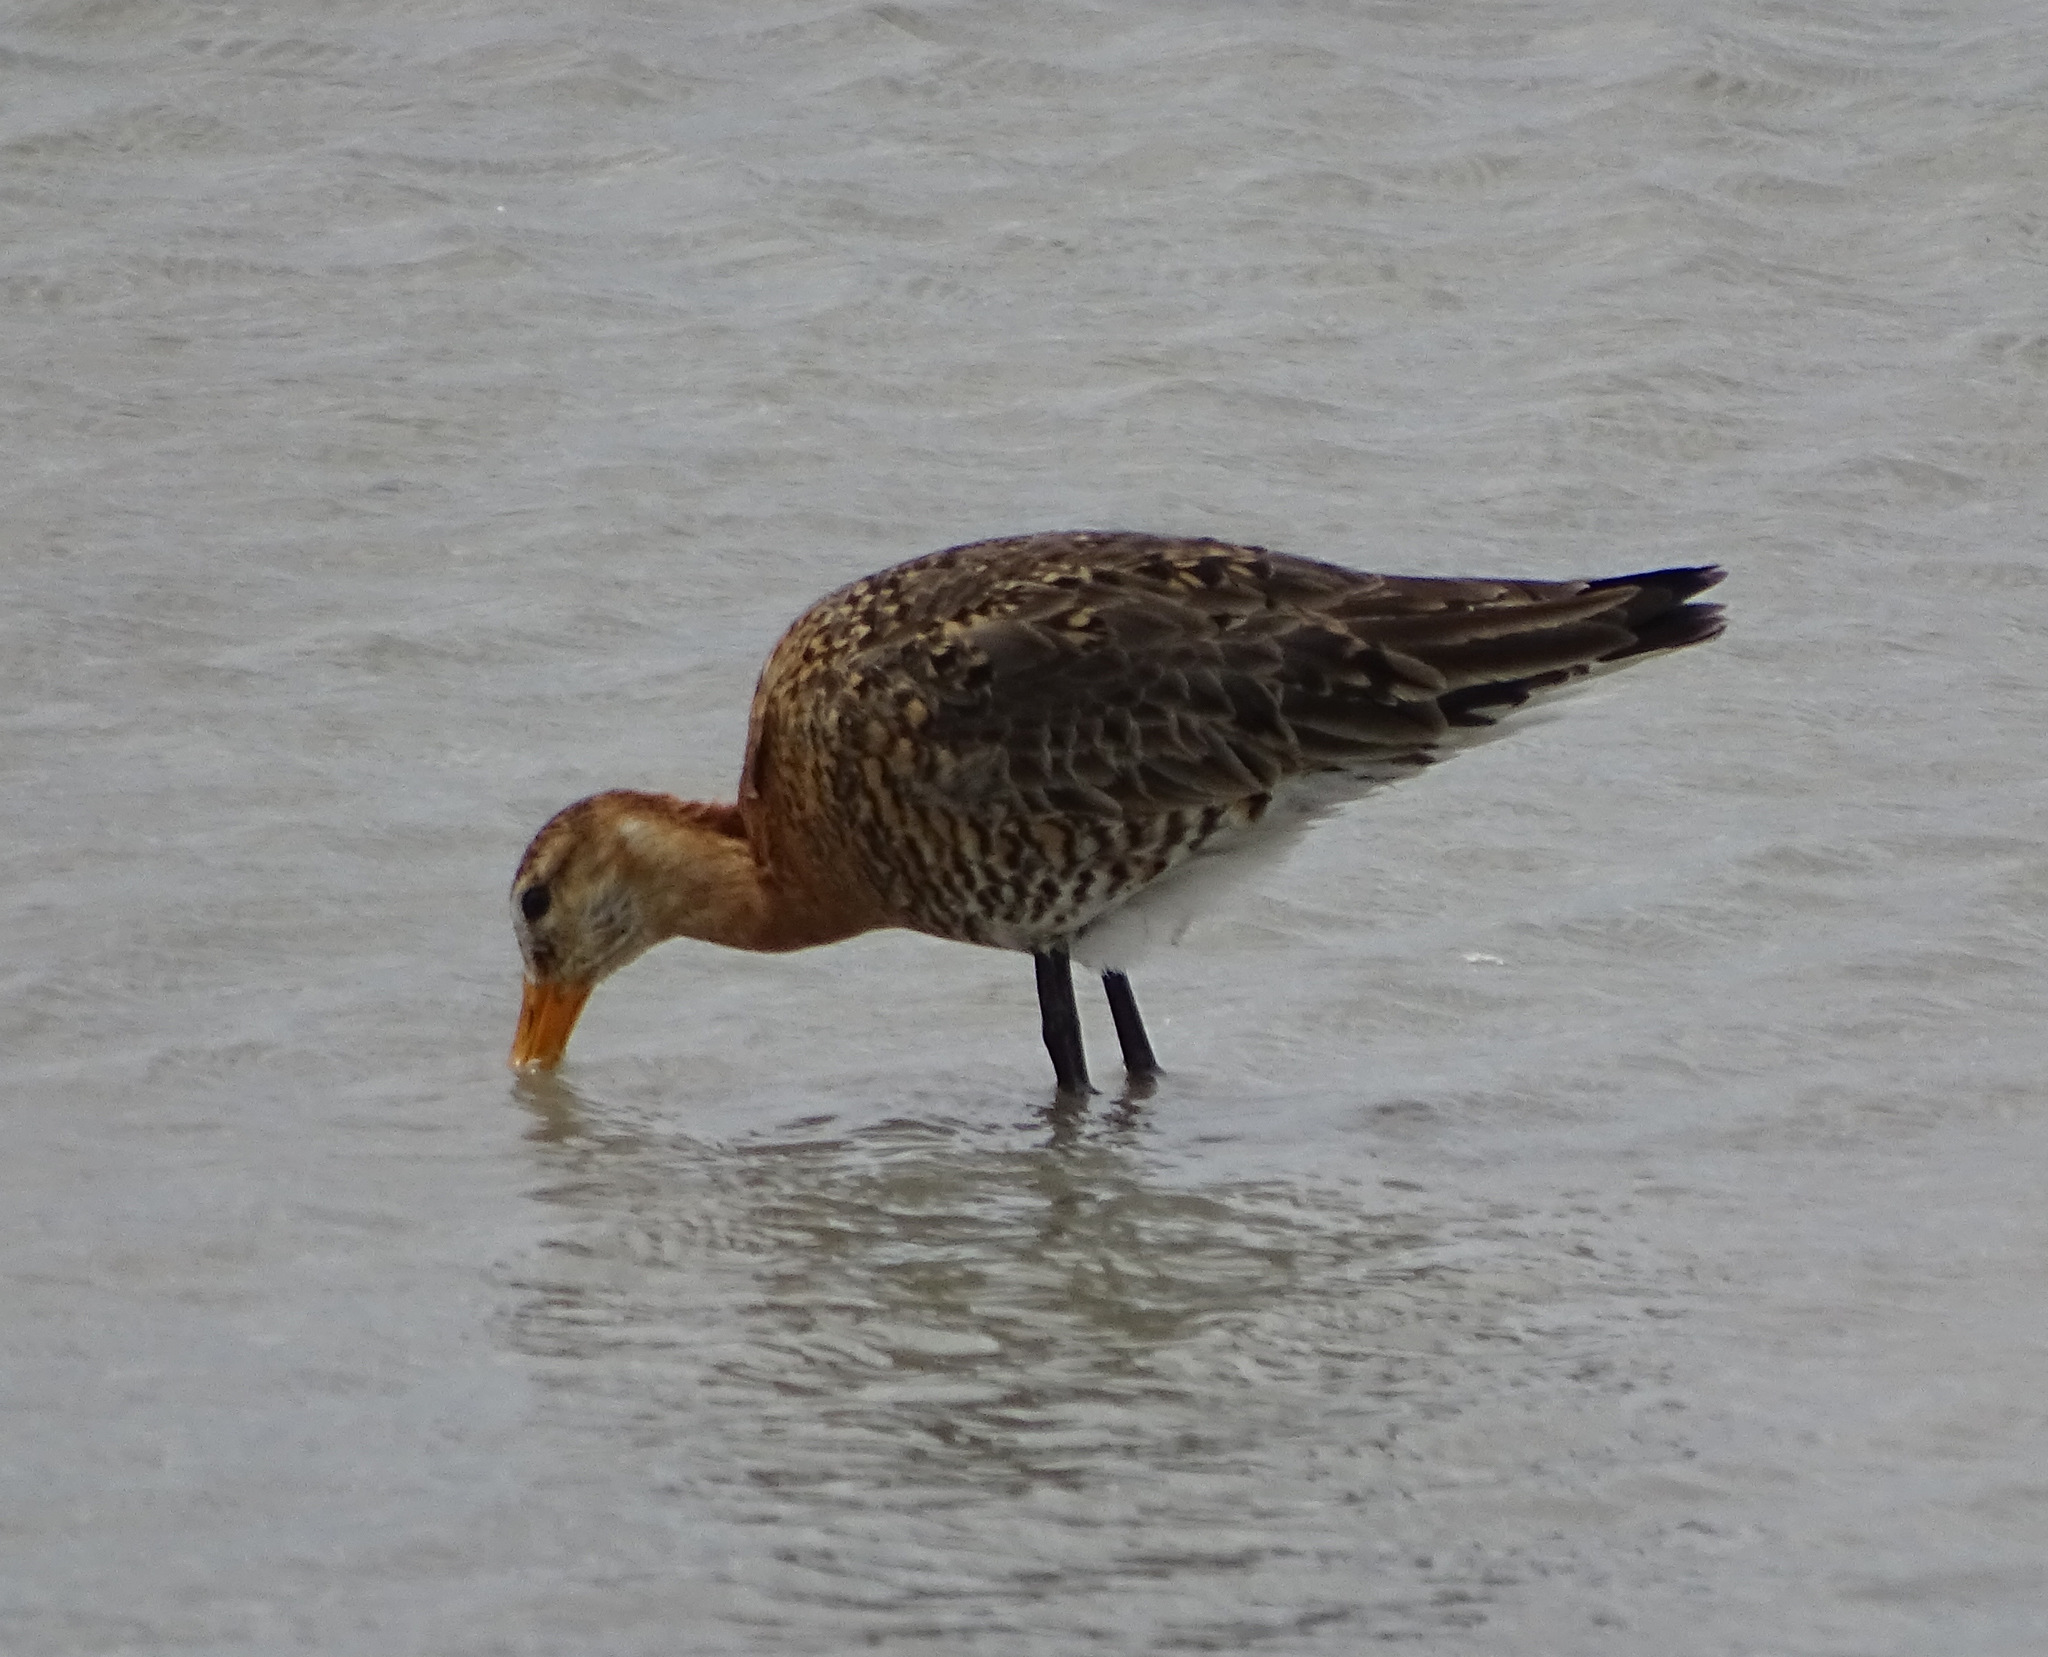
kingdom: Animalia
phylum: Chordata
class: Aves
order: Charadriiformes
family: Scolopacidae
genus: Limosa
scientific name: Limosa limosa
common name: Black-tailed godwit
